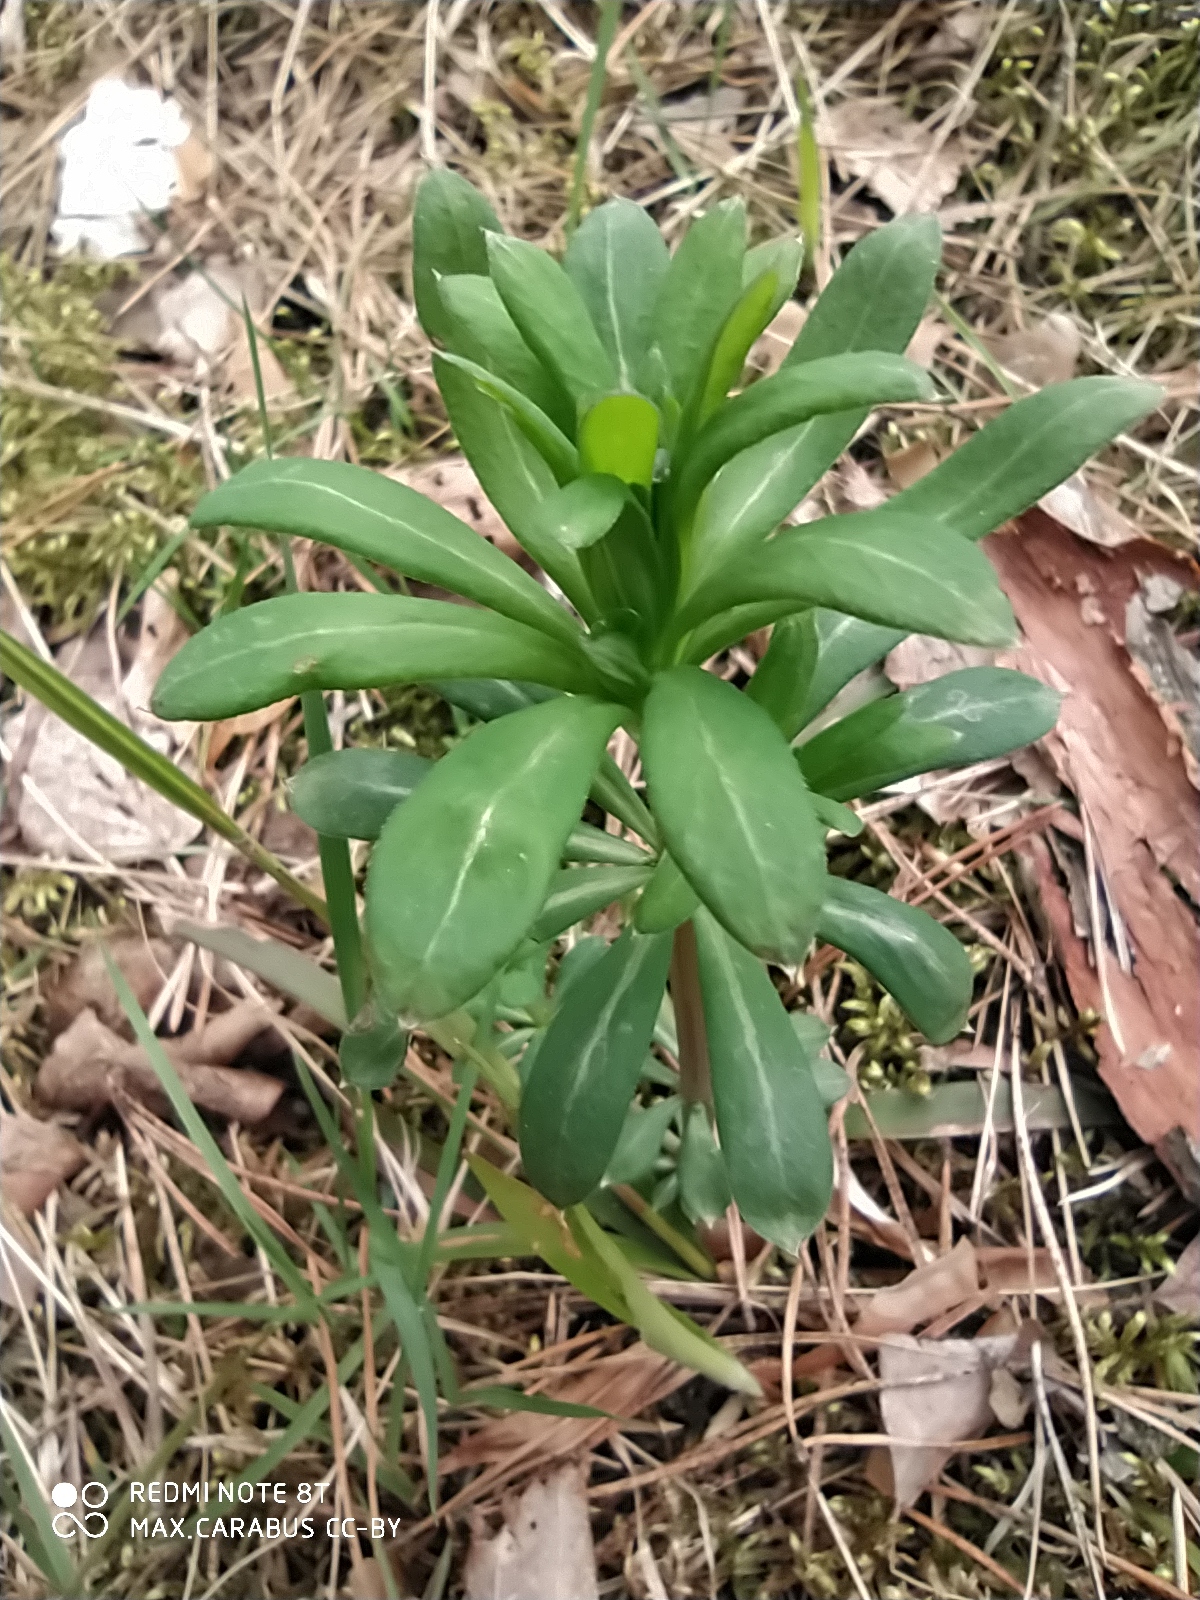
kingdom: Plantae
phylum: Tracheophyta
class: Magnoliopsida
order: Gentianales
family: Rubiaceae
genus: Galium
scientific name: Galium intermedium
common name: Bedstraw
